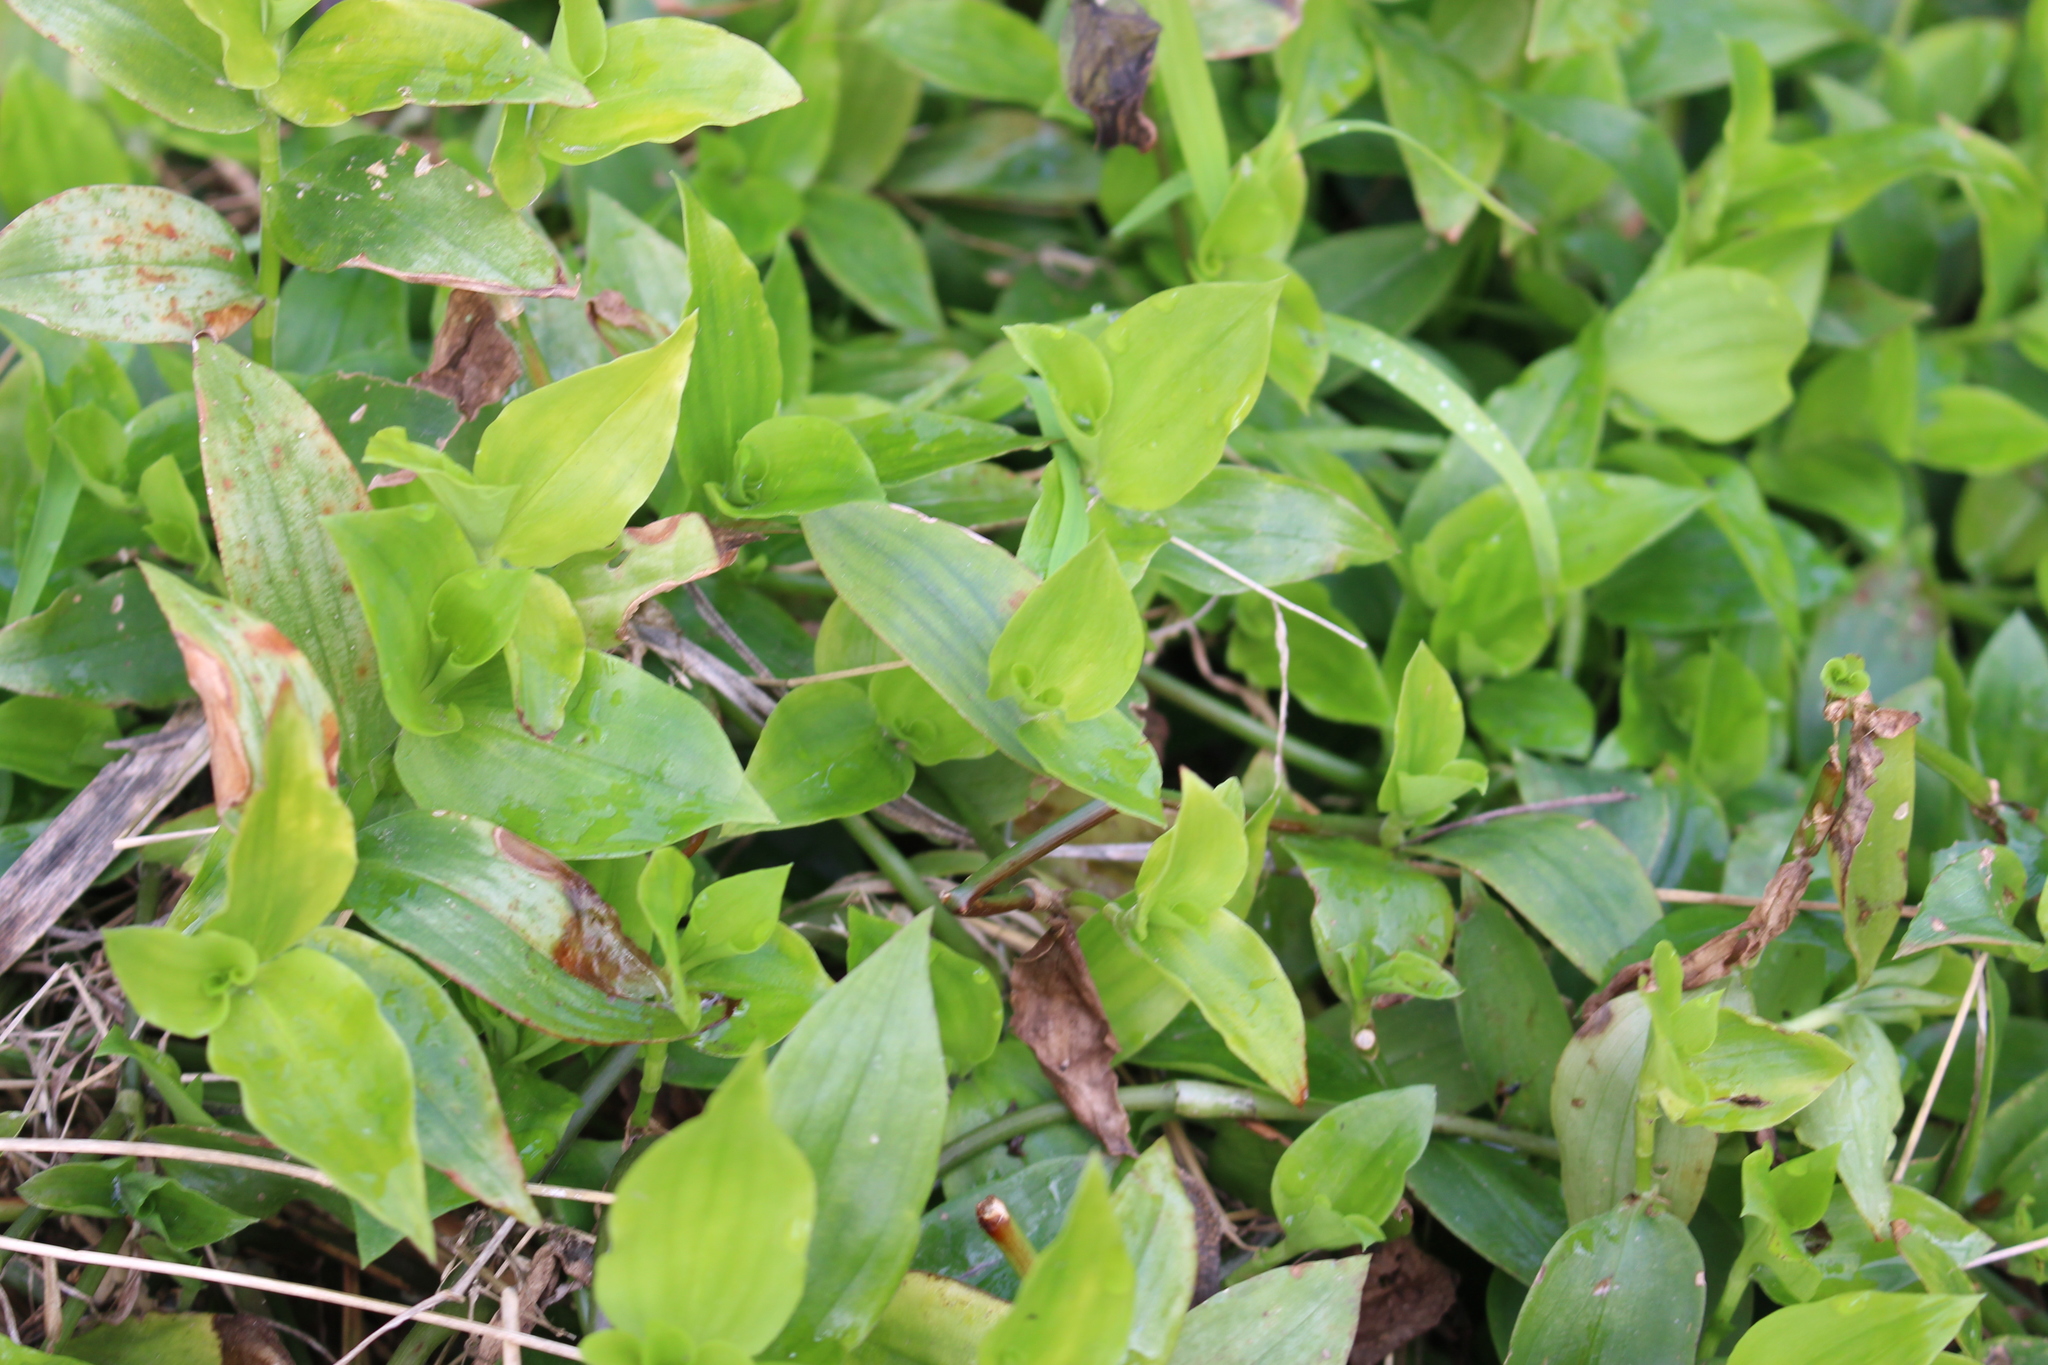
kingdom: Plantae
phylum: Tracheophyta
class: Liliopsida
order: Commelinales
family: Commelinaceae
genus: Tradescantia
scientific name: Tradescantia fluminensis
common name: Wandering-jew
